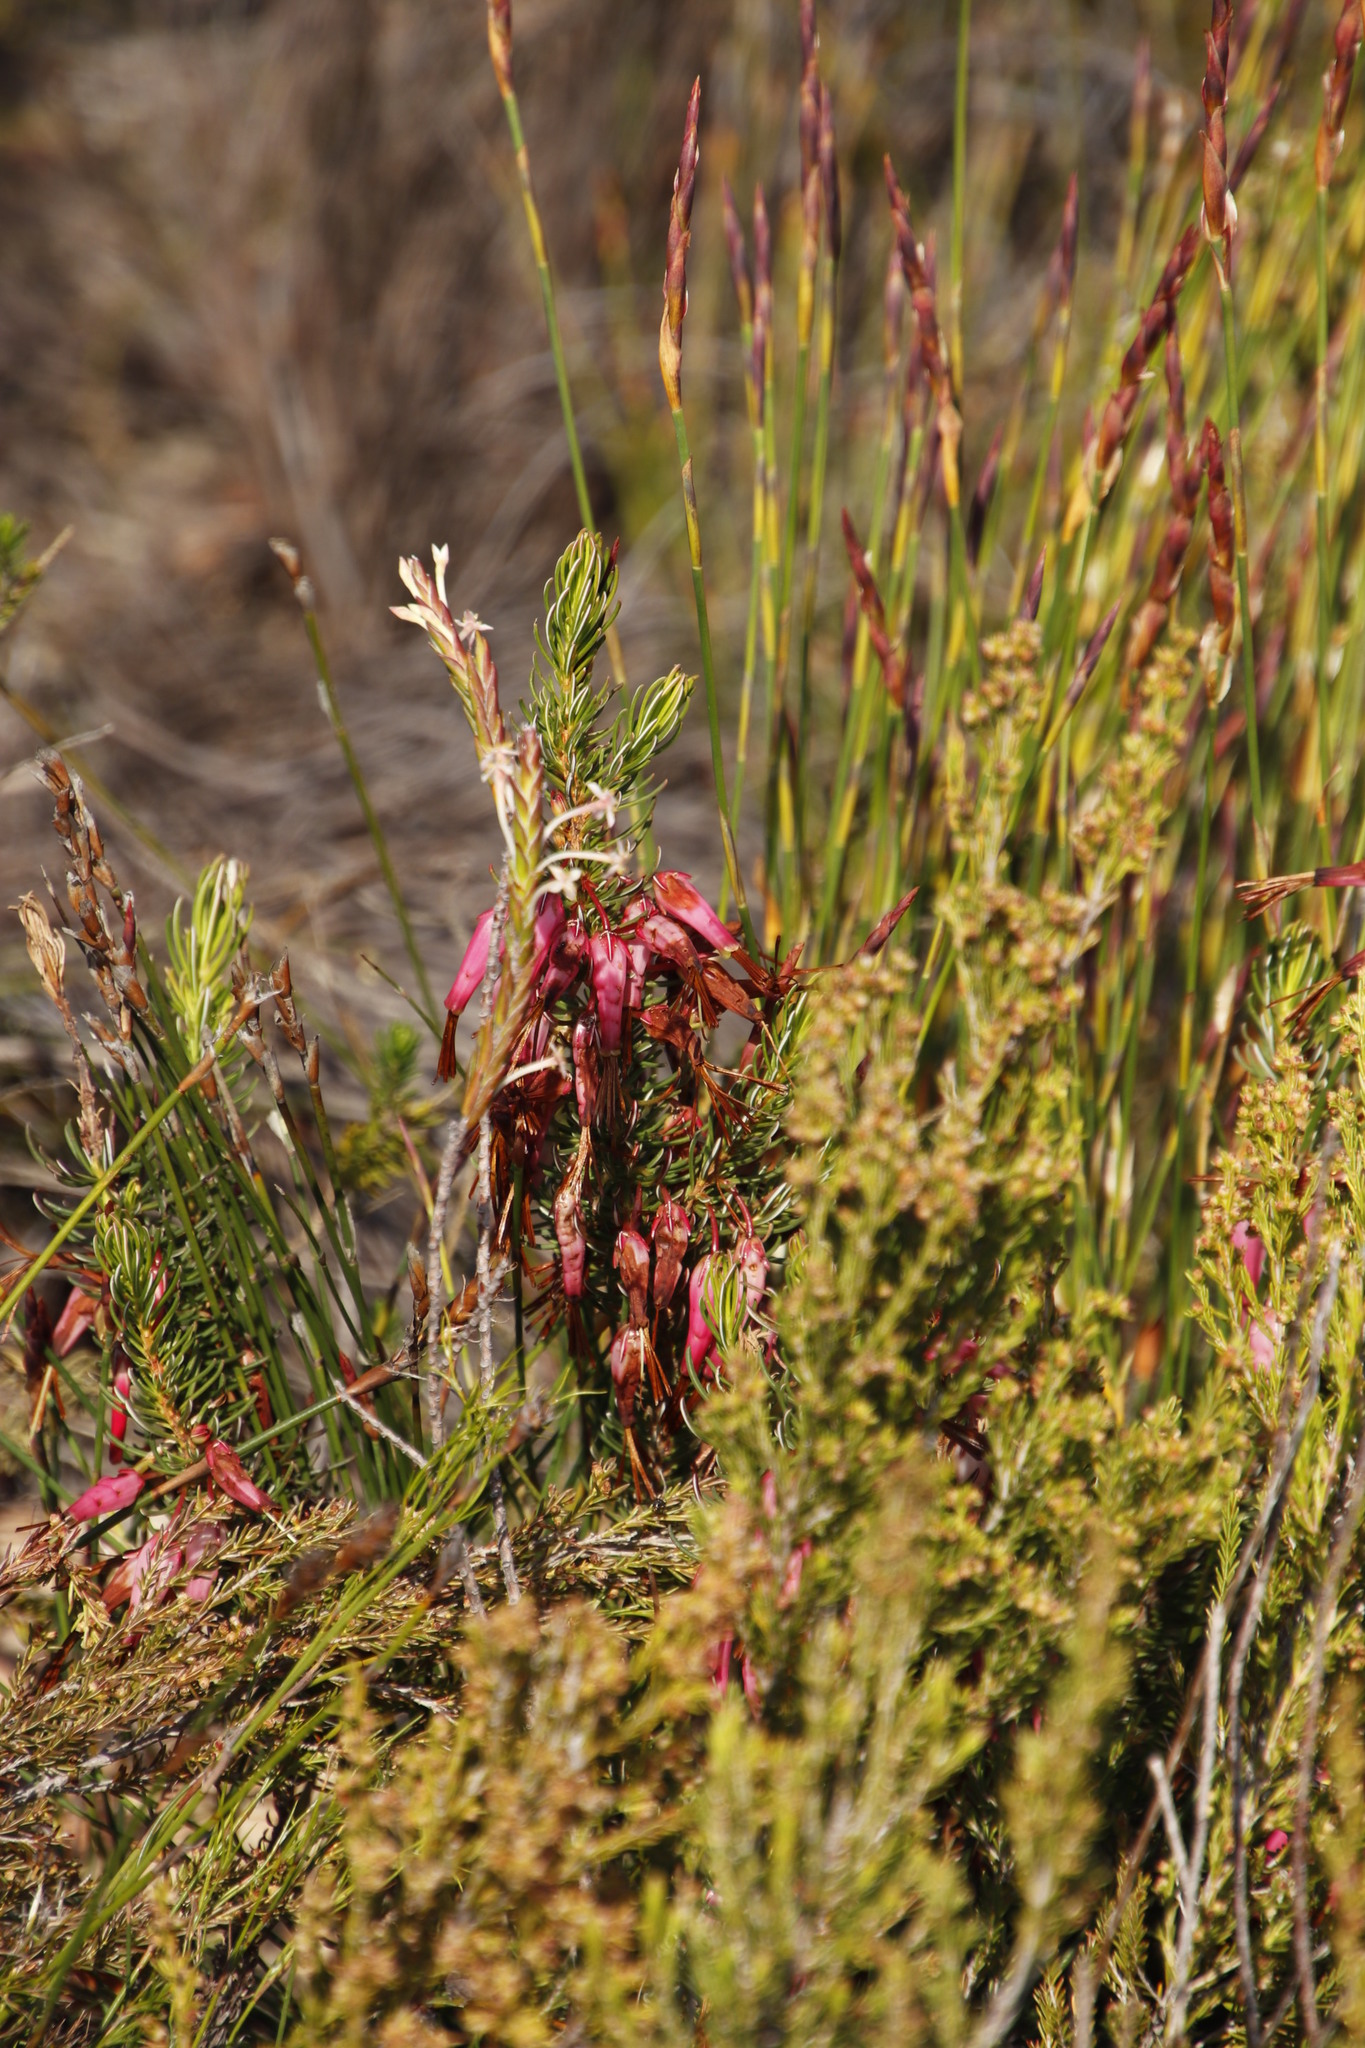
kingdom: Plantae
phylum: Tracheophyta
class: Magnoliopsida
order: Ericales
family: Ericaceae
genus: Erica
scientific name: Erica plukenetii
